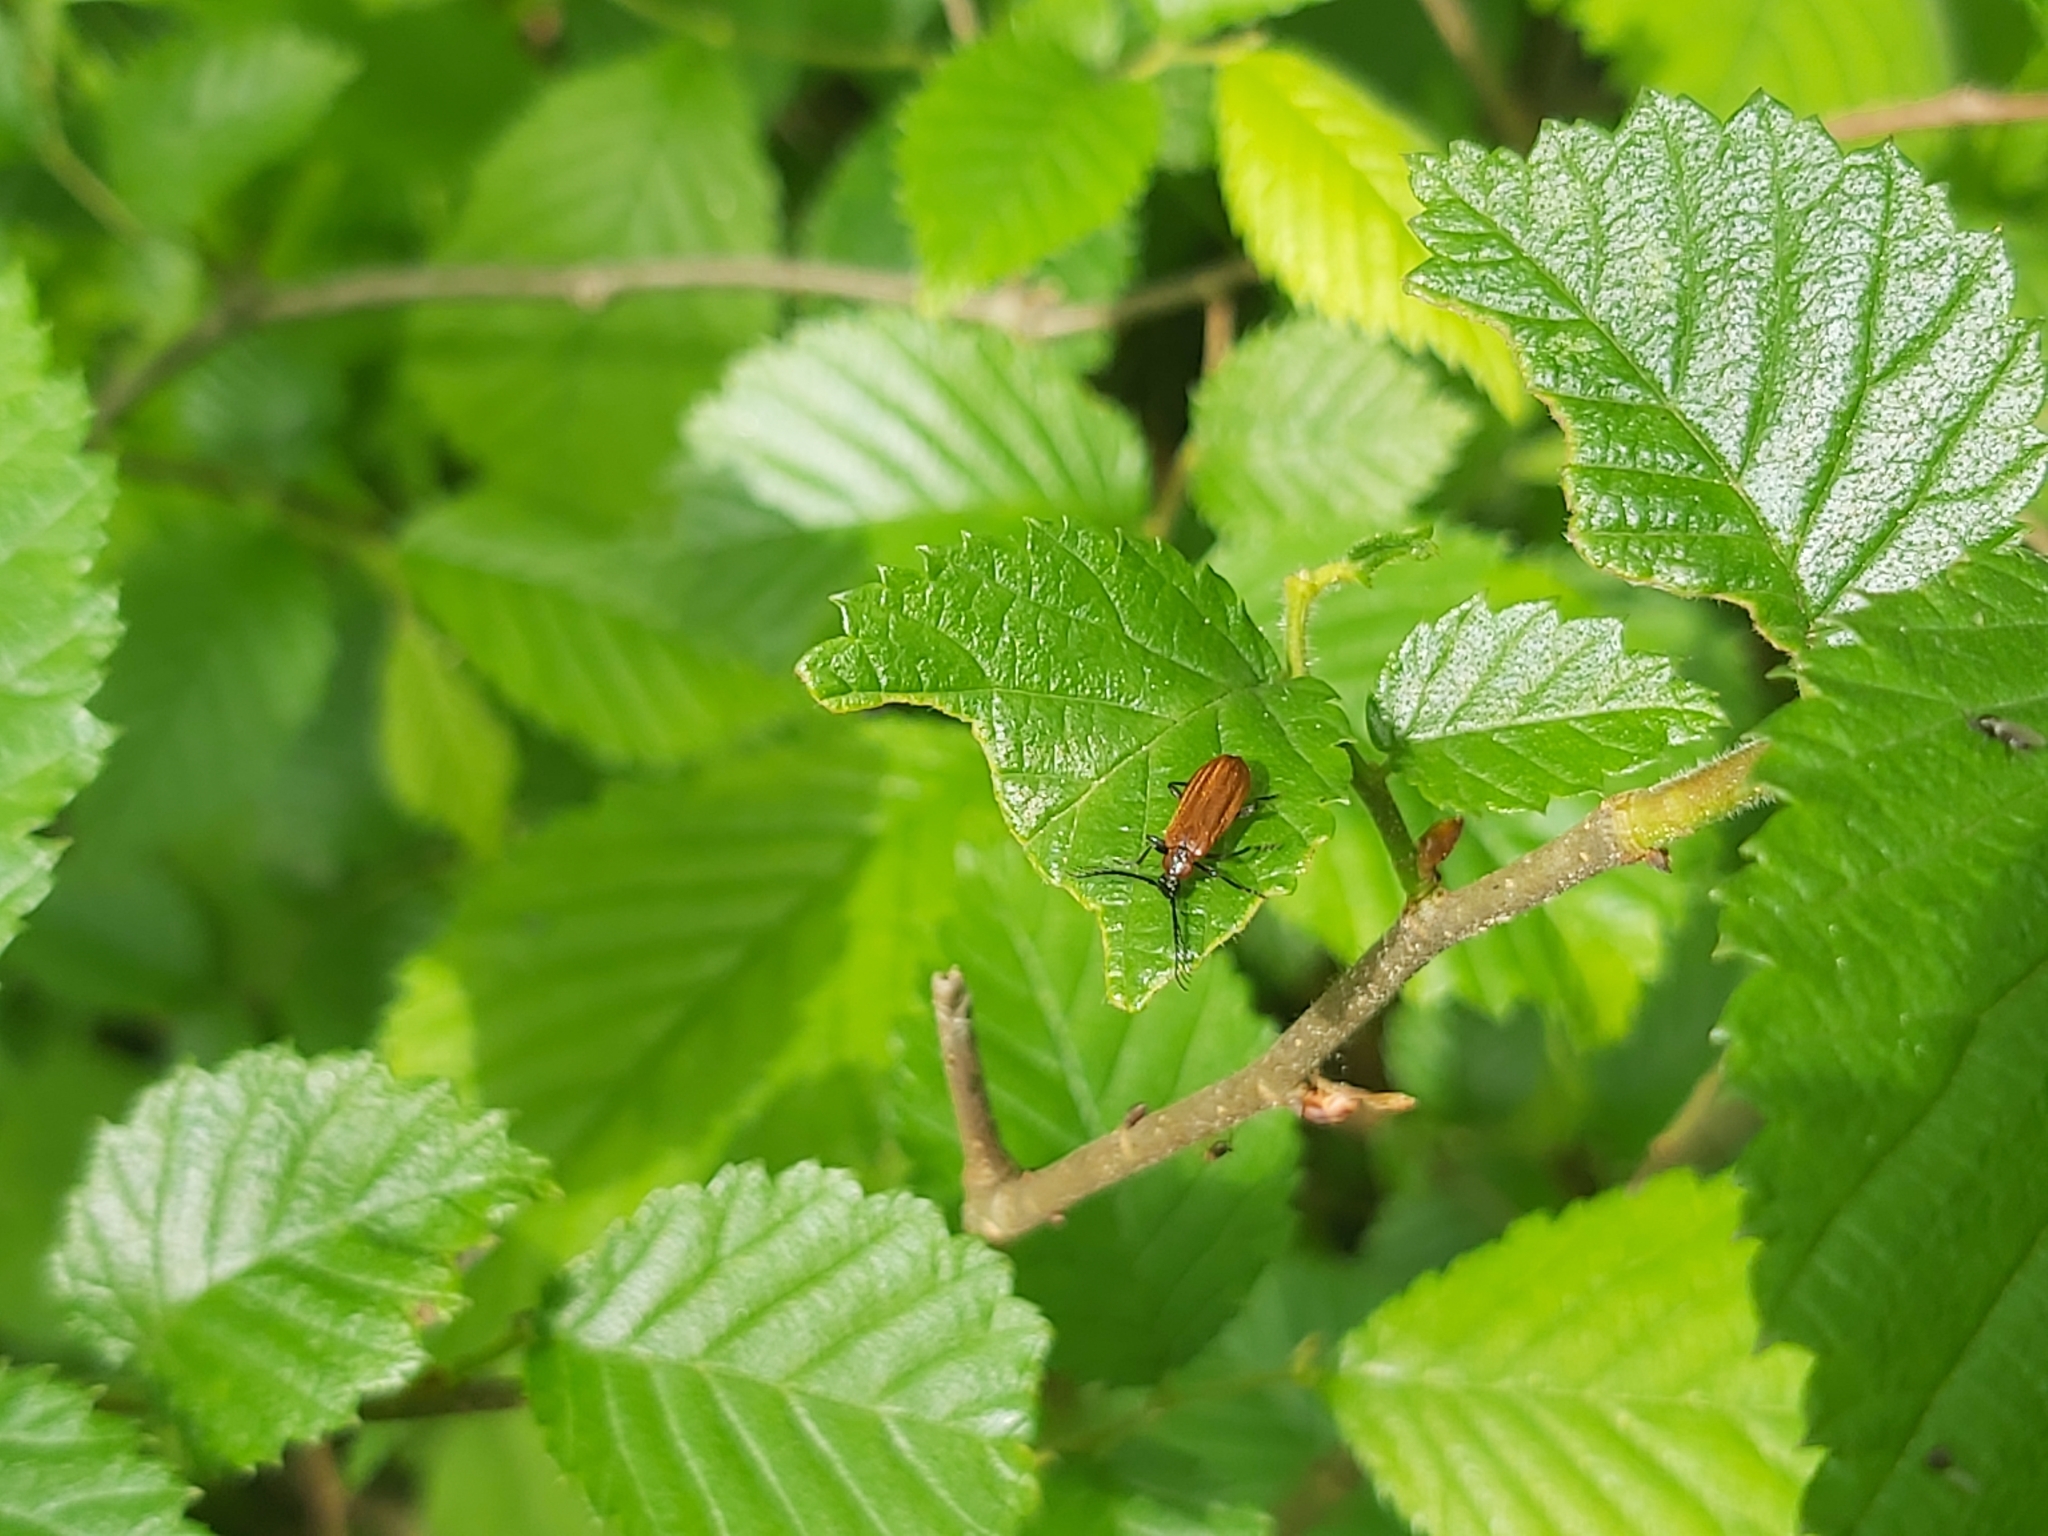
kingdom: Animalia
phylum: Arthropoda
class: Insecta
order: Coleoptera
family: Pyrochroidae
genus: Schizotus
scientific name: Schizotus pectinicornis
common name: Scarce cardinal beetle
